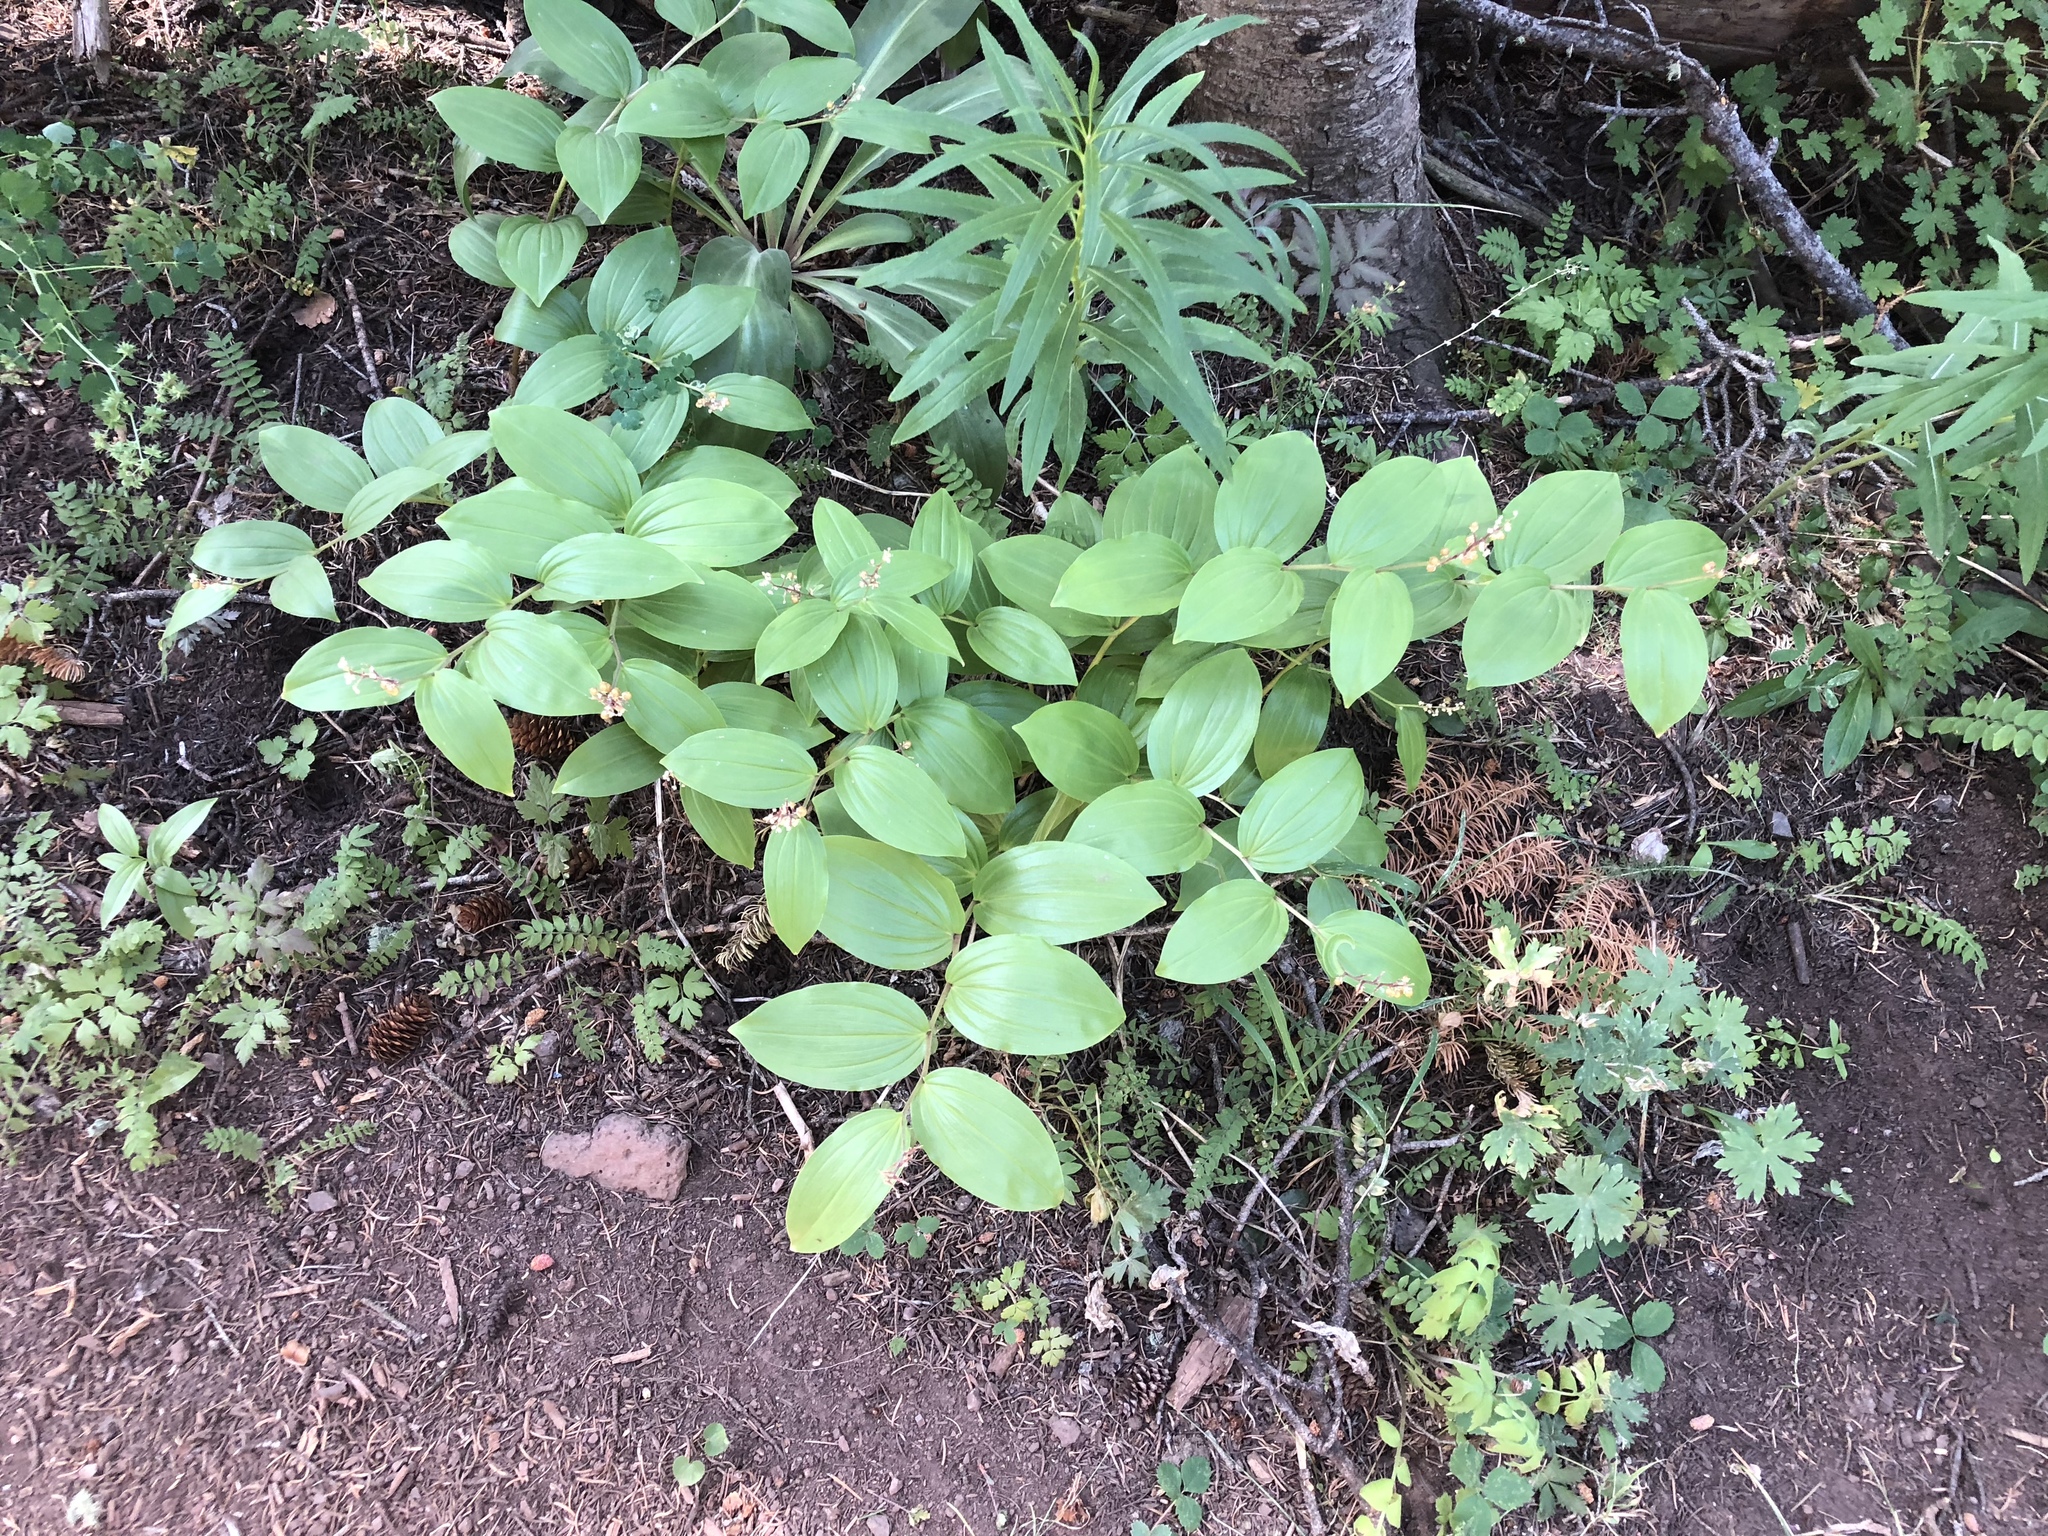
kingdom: Plantae
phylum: Tracheophyta
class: Liliopsida
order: Asparagales
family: Asparagaceae
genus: Maianthemum
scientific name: Maianthemum racemosum
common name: False spikenard
